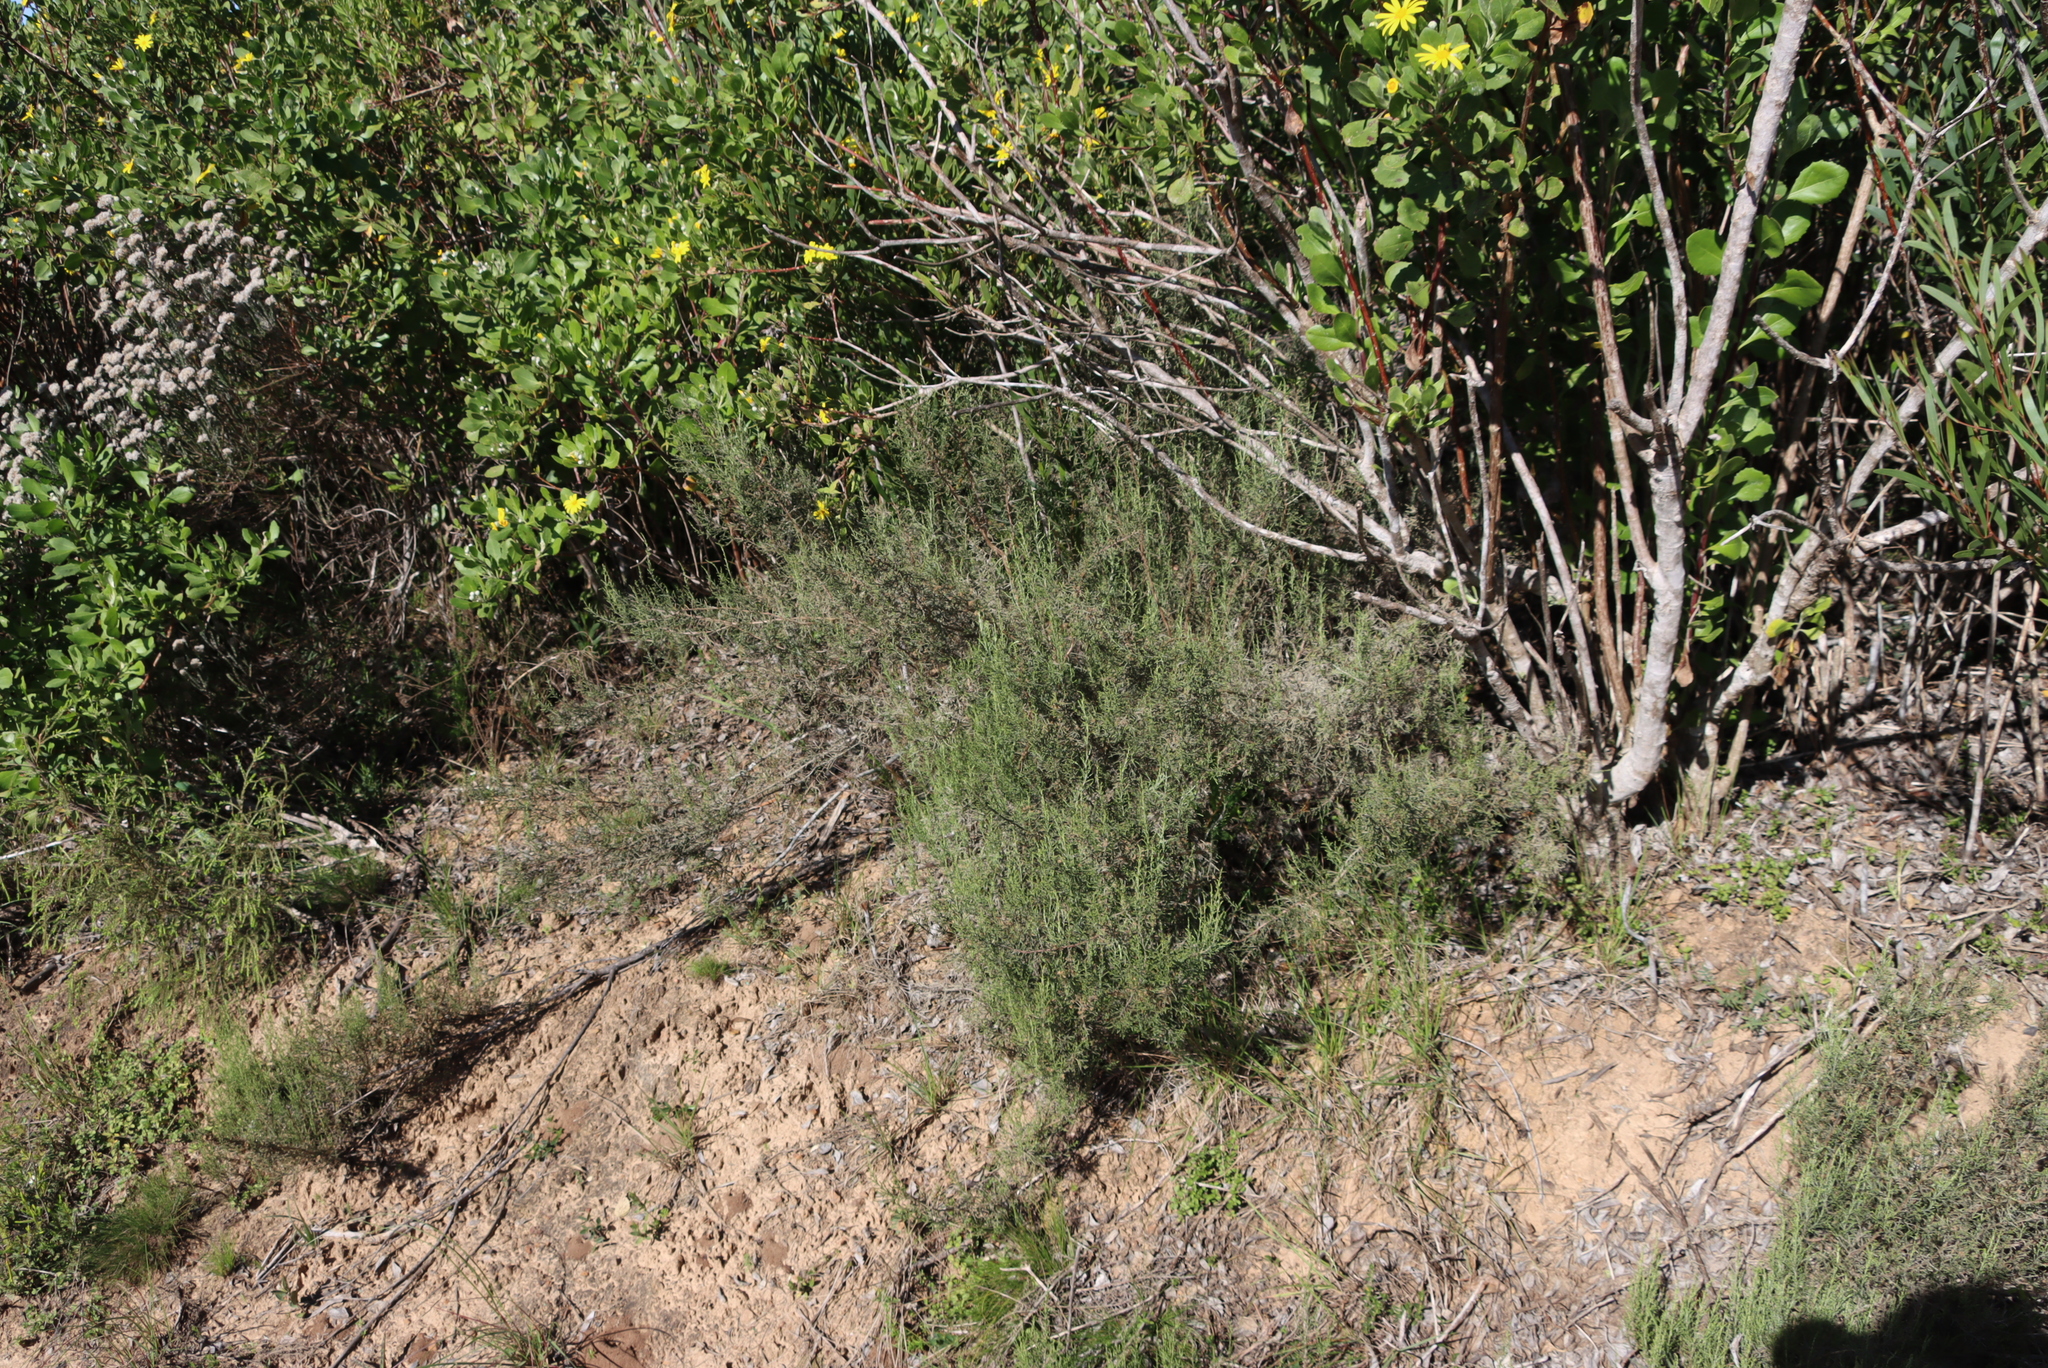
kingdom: Plantae
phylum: Tracheophyta
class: Magnoliopsida
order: Asterales
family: Asteraceae
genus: Dicerothamnus
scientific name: Dicerothamnus rhinocerotis
